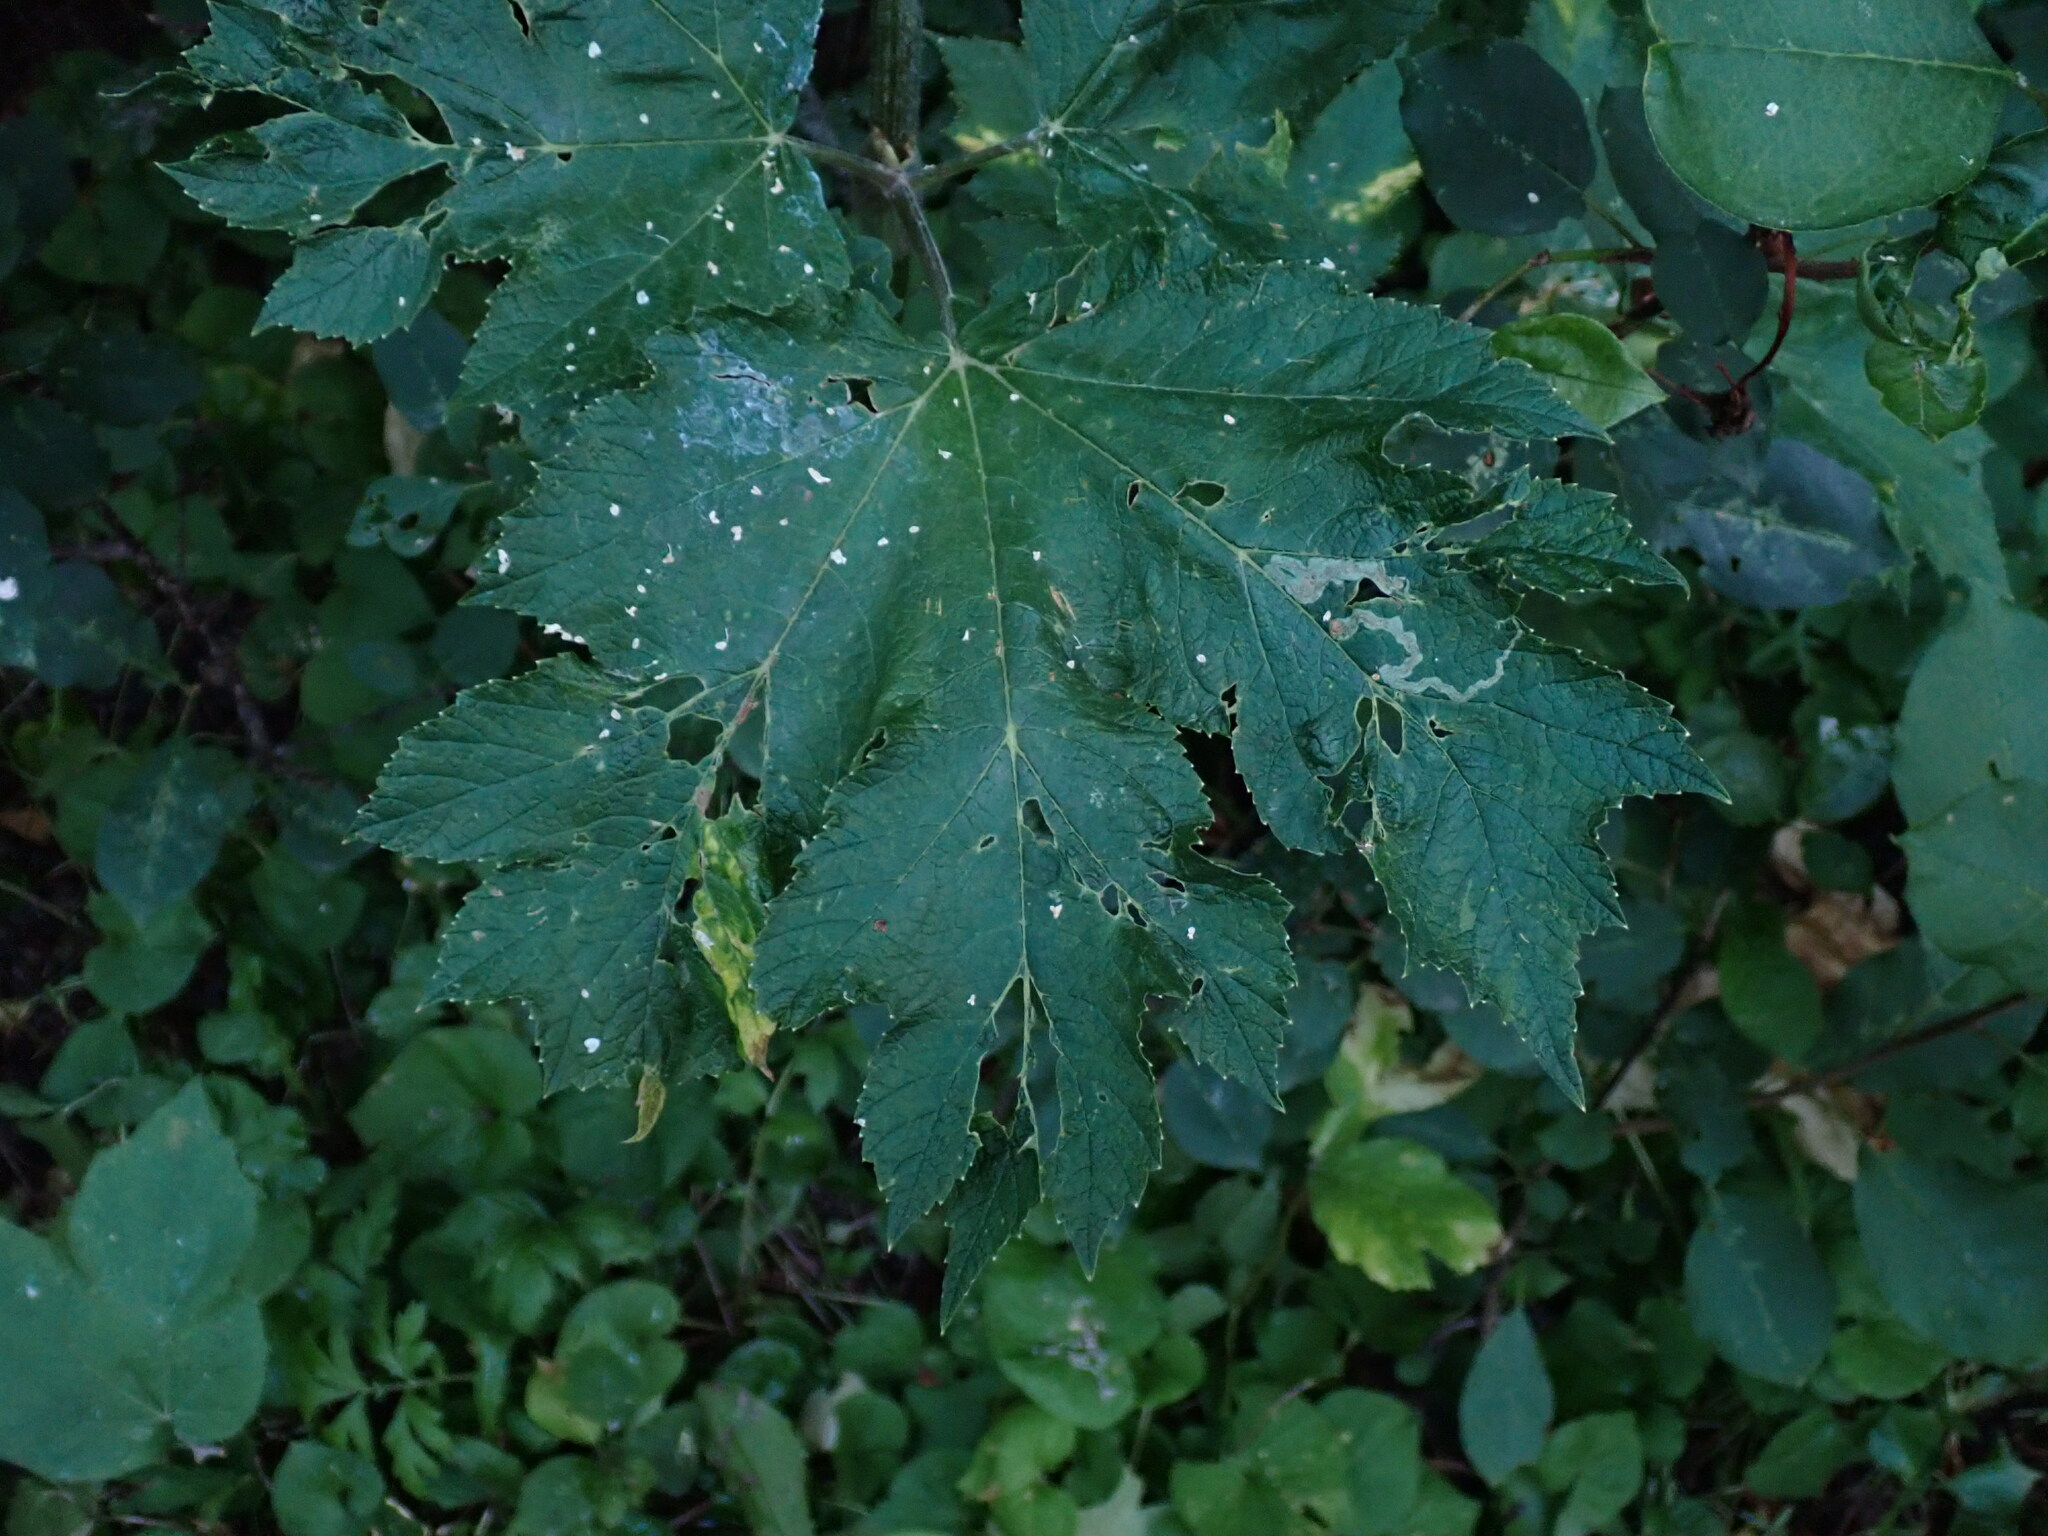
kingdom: Plantae
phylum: Tracheophyta
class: Magnoliopsida
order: Apiales
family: Apiaceae
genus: Heracleum
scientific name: Heracleum maximum
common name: American cow parsnip
